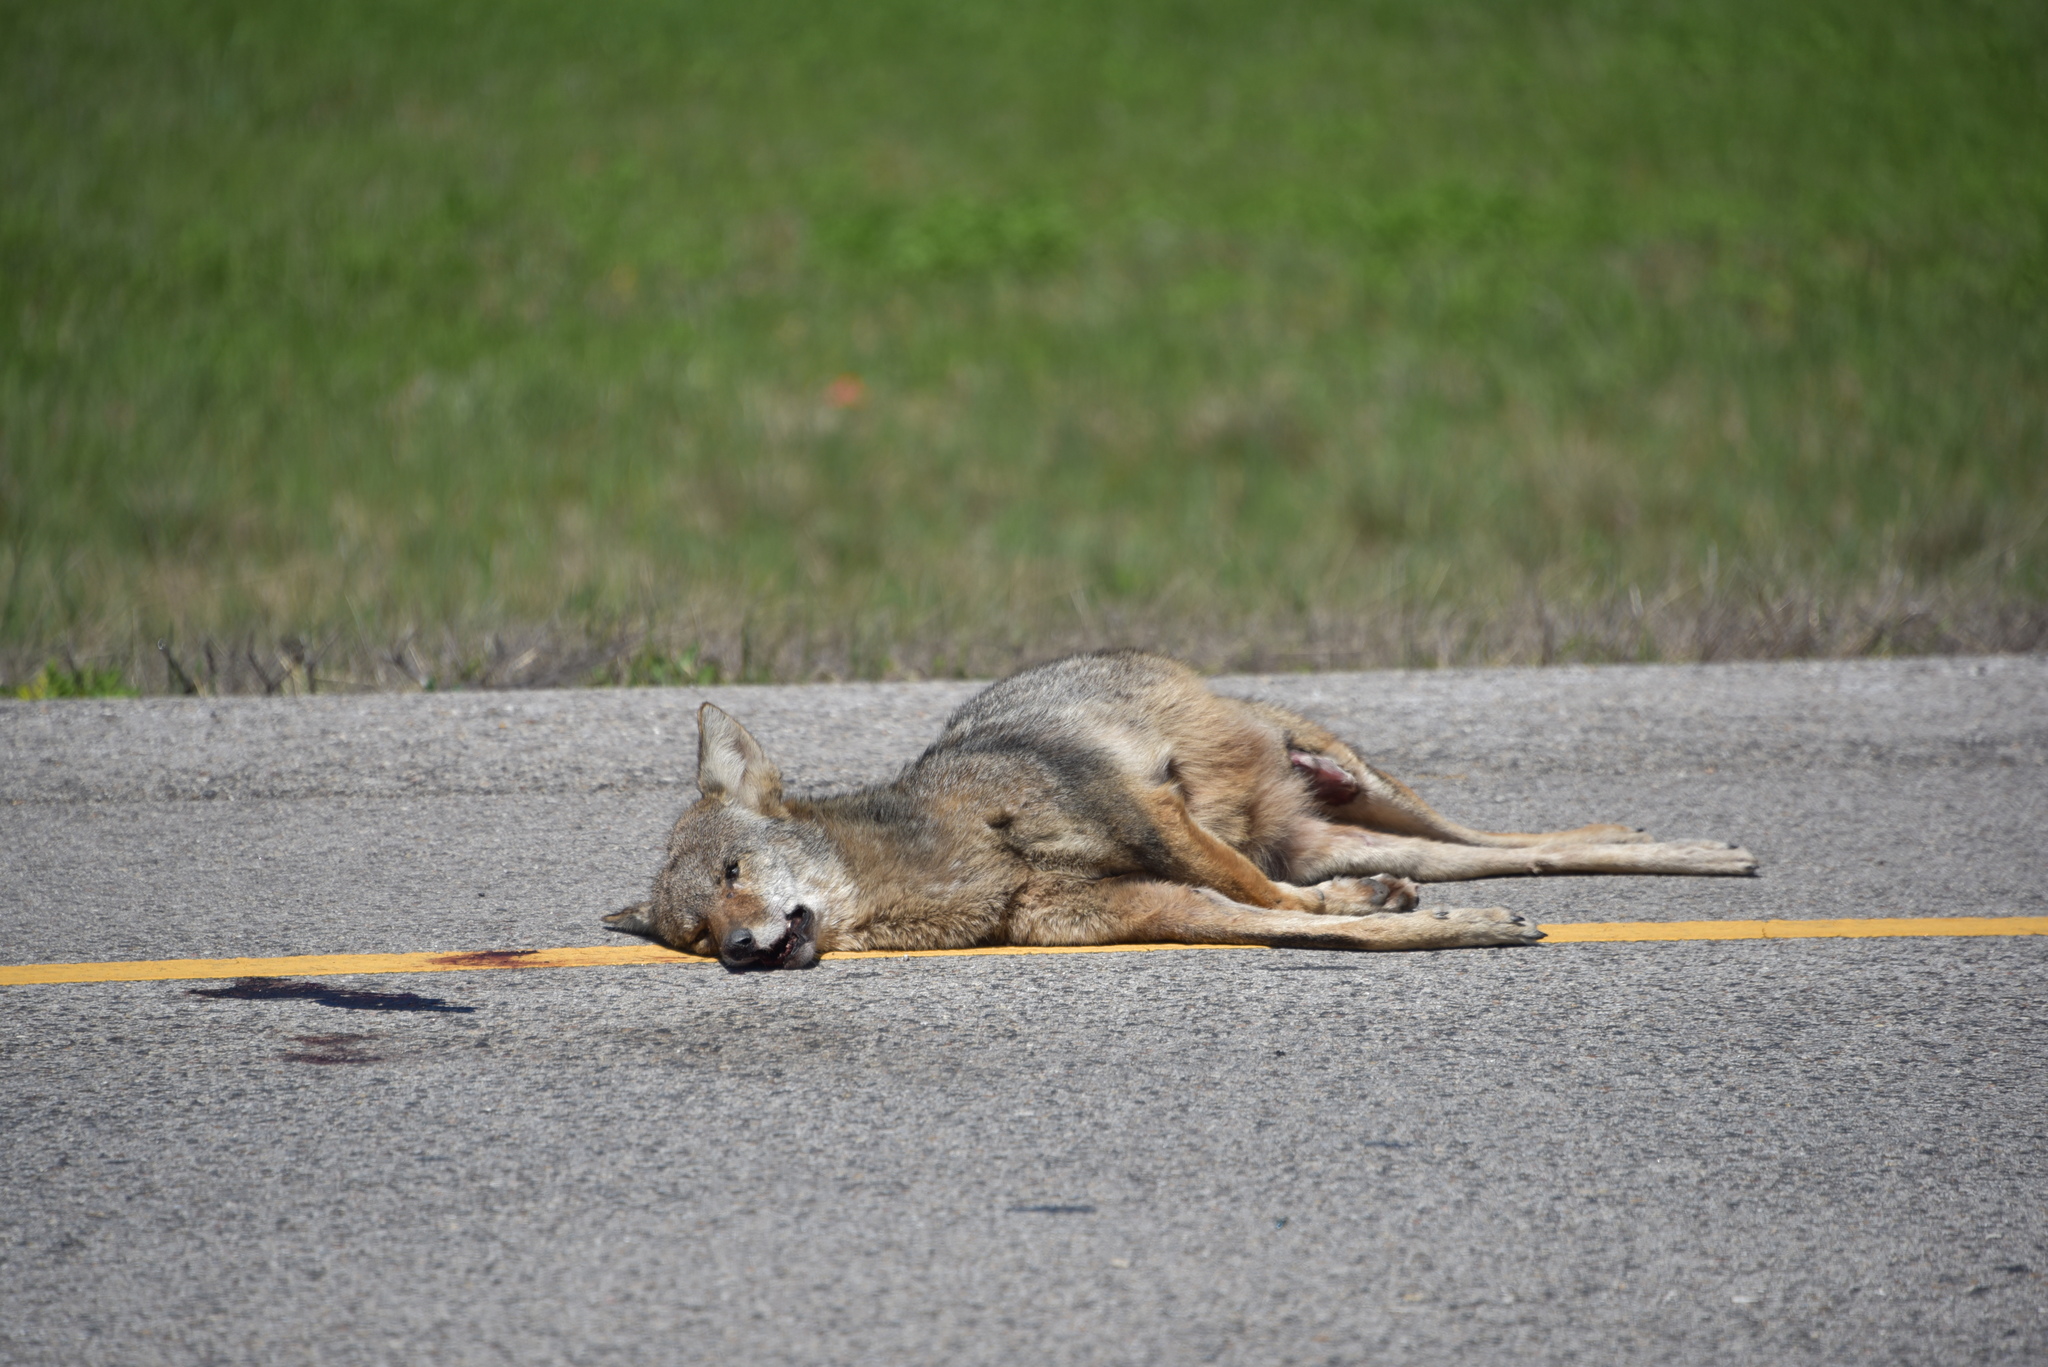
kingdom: Animalia
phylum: Chordata
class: Mammalia
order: Carnivora
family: Canidae
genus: Canis
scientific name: Canis latrans
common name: Coyote
